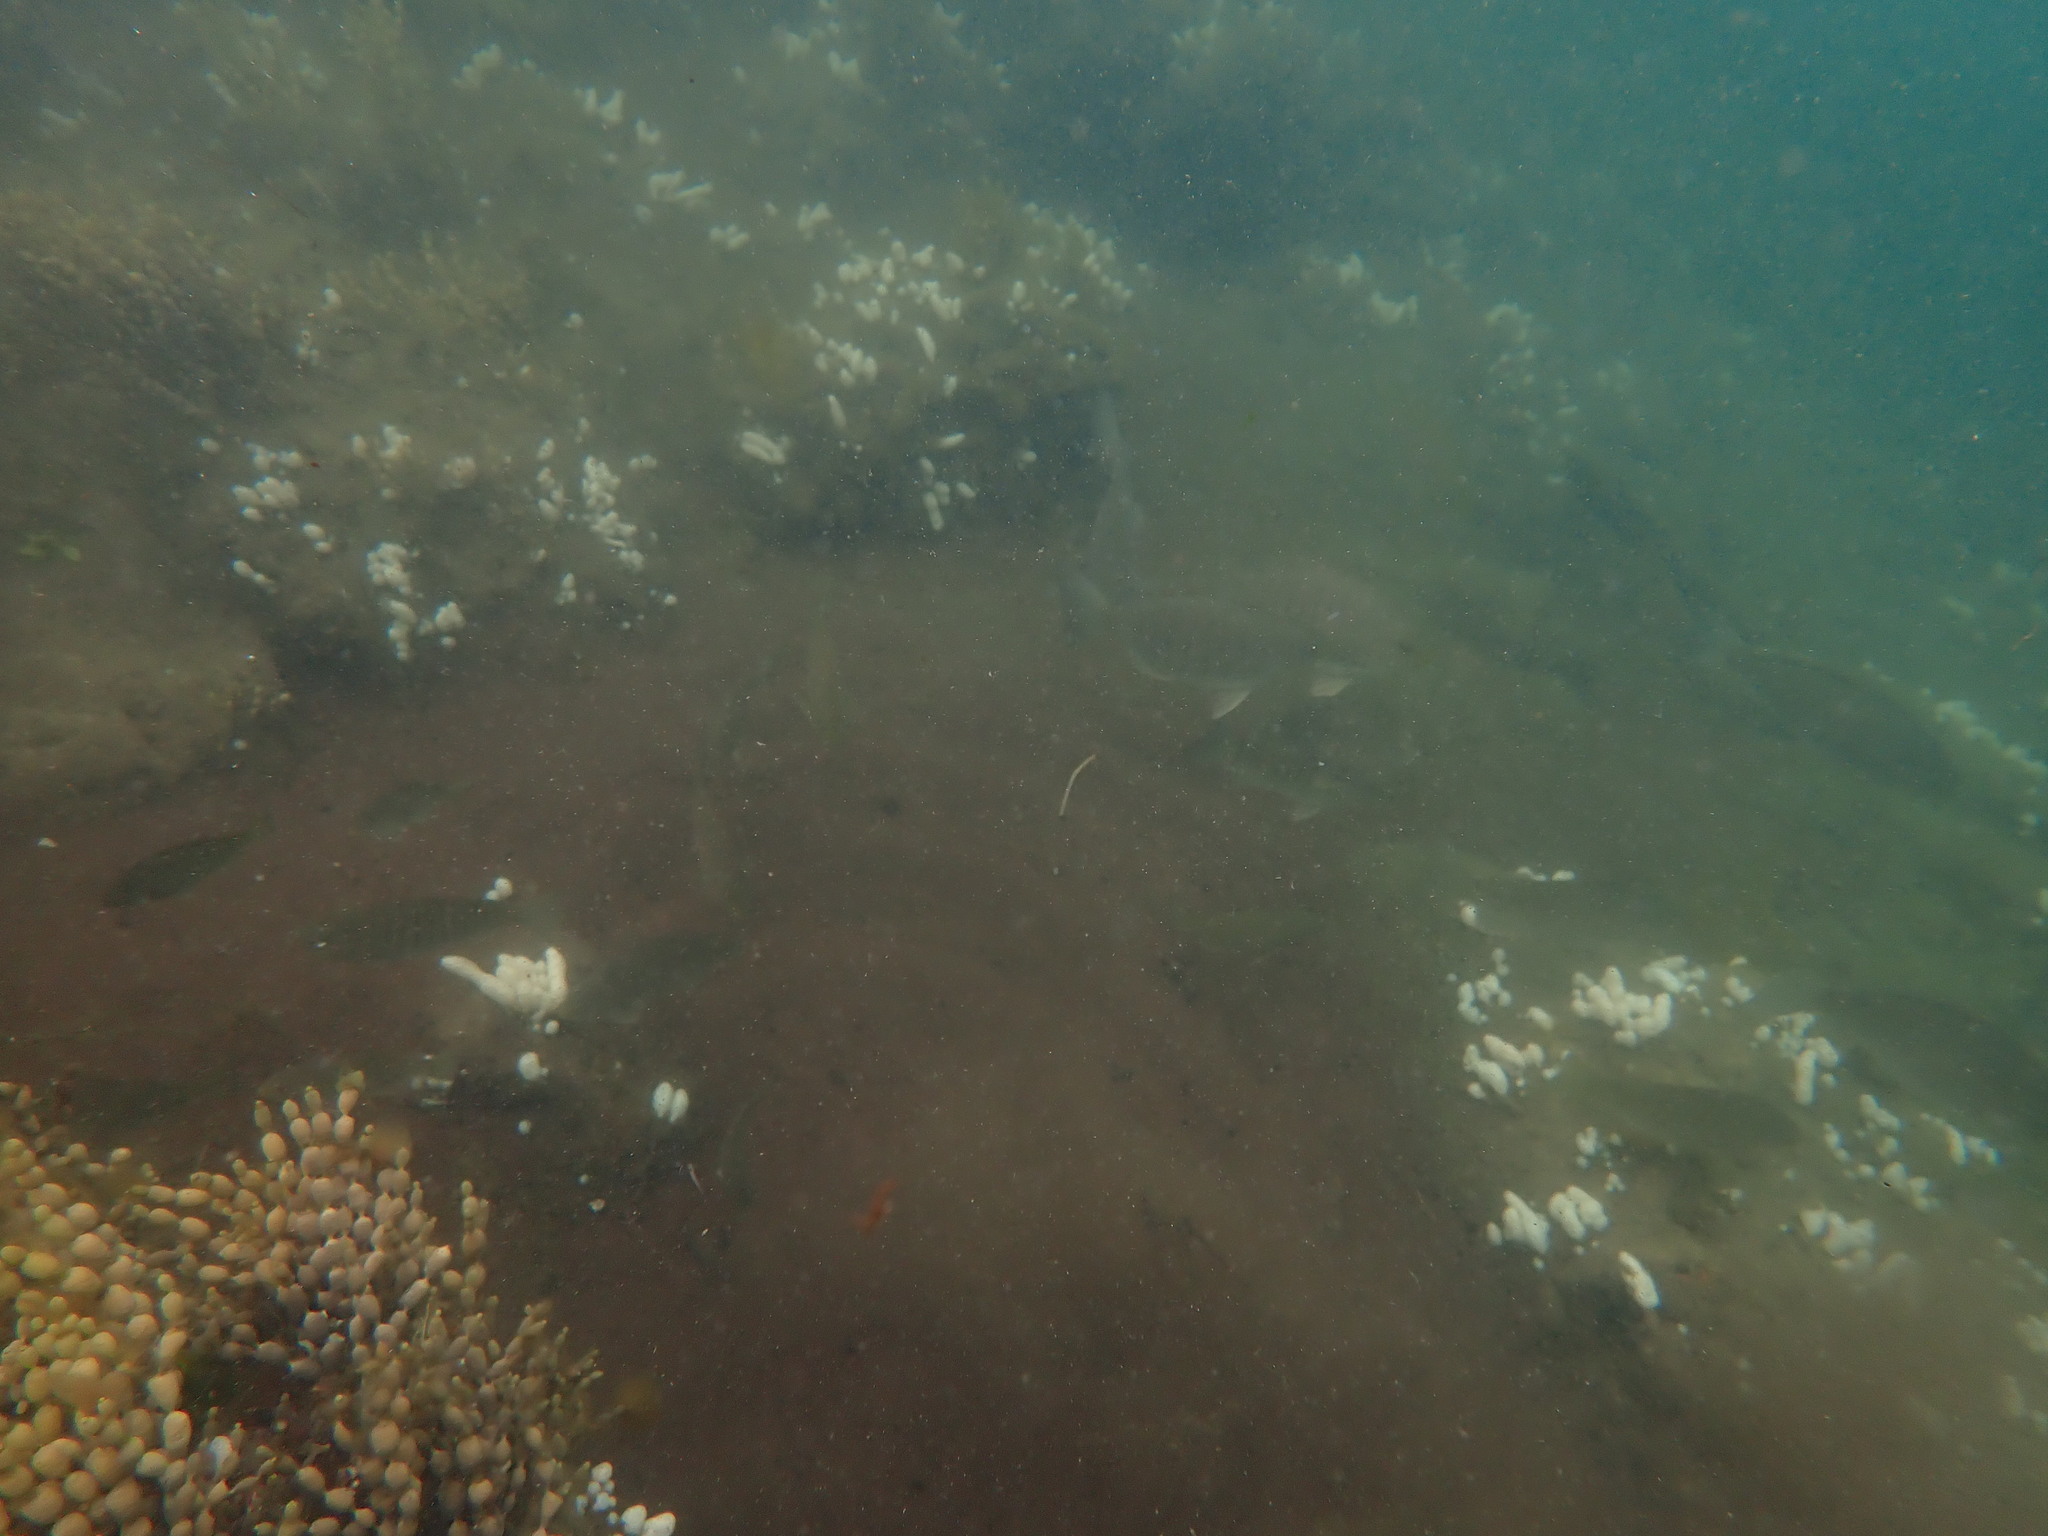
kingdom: Animalia
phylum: Chordata
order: Perciformes
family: Kyphosidae
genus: Girella
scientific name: Girella tricuspidata
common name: Parore
